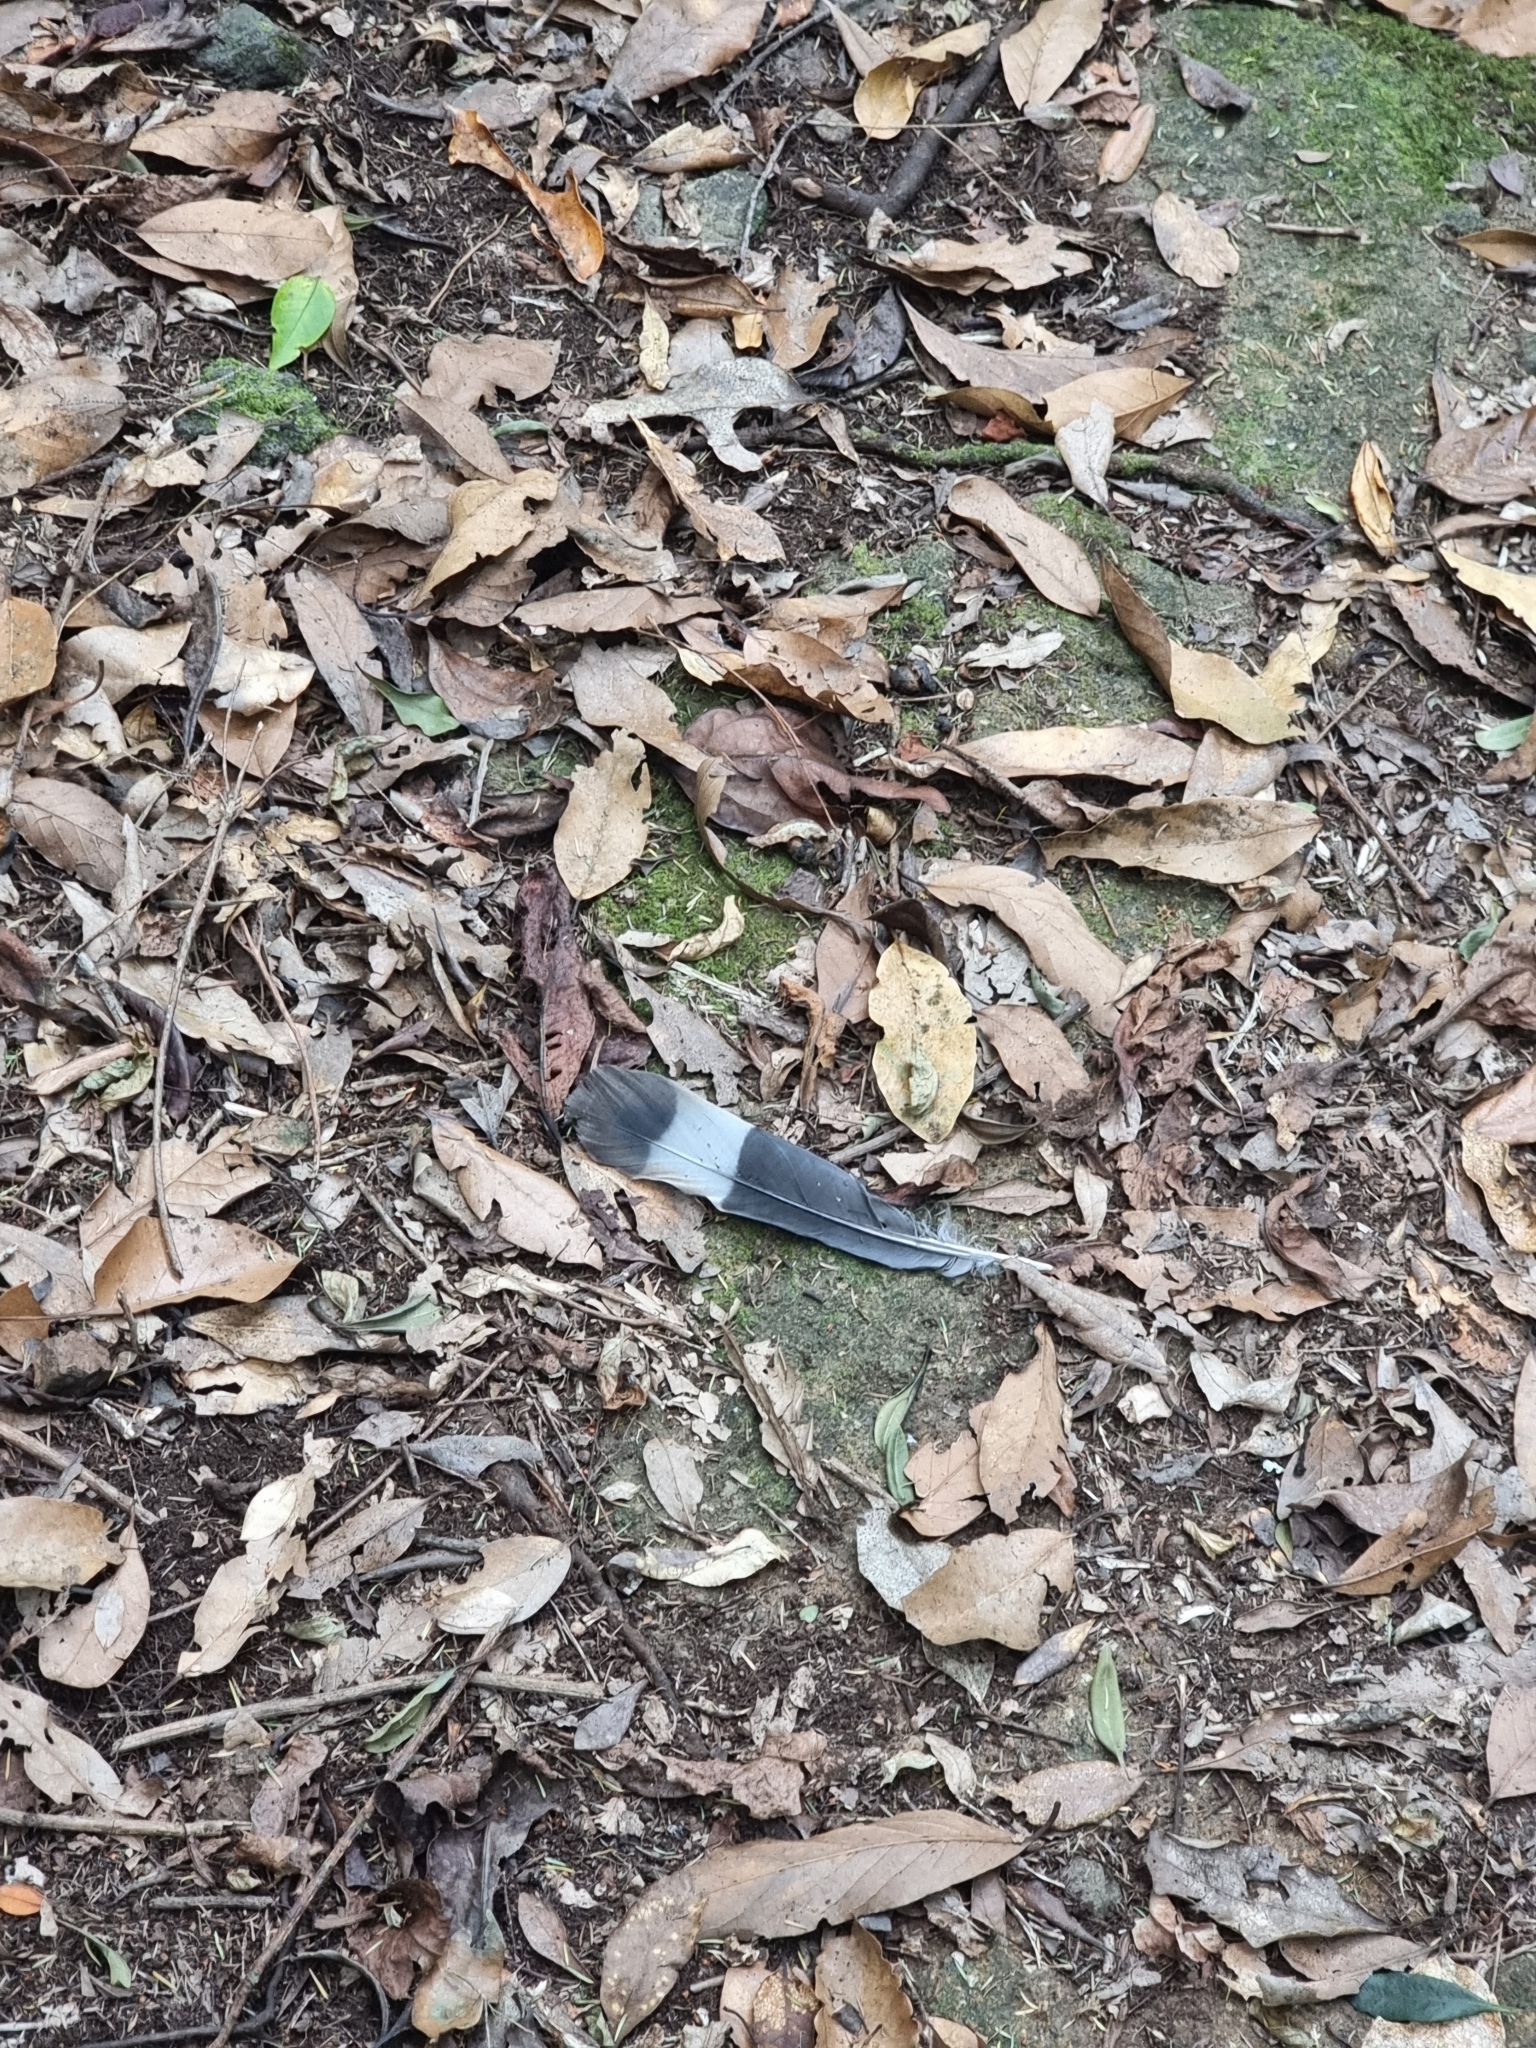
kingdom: Animalia
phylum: Chordata
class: Aves
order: Columbiformes
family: Columbidae
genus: Columba
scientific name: Columba trocaz
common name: Trocaz pigeon
